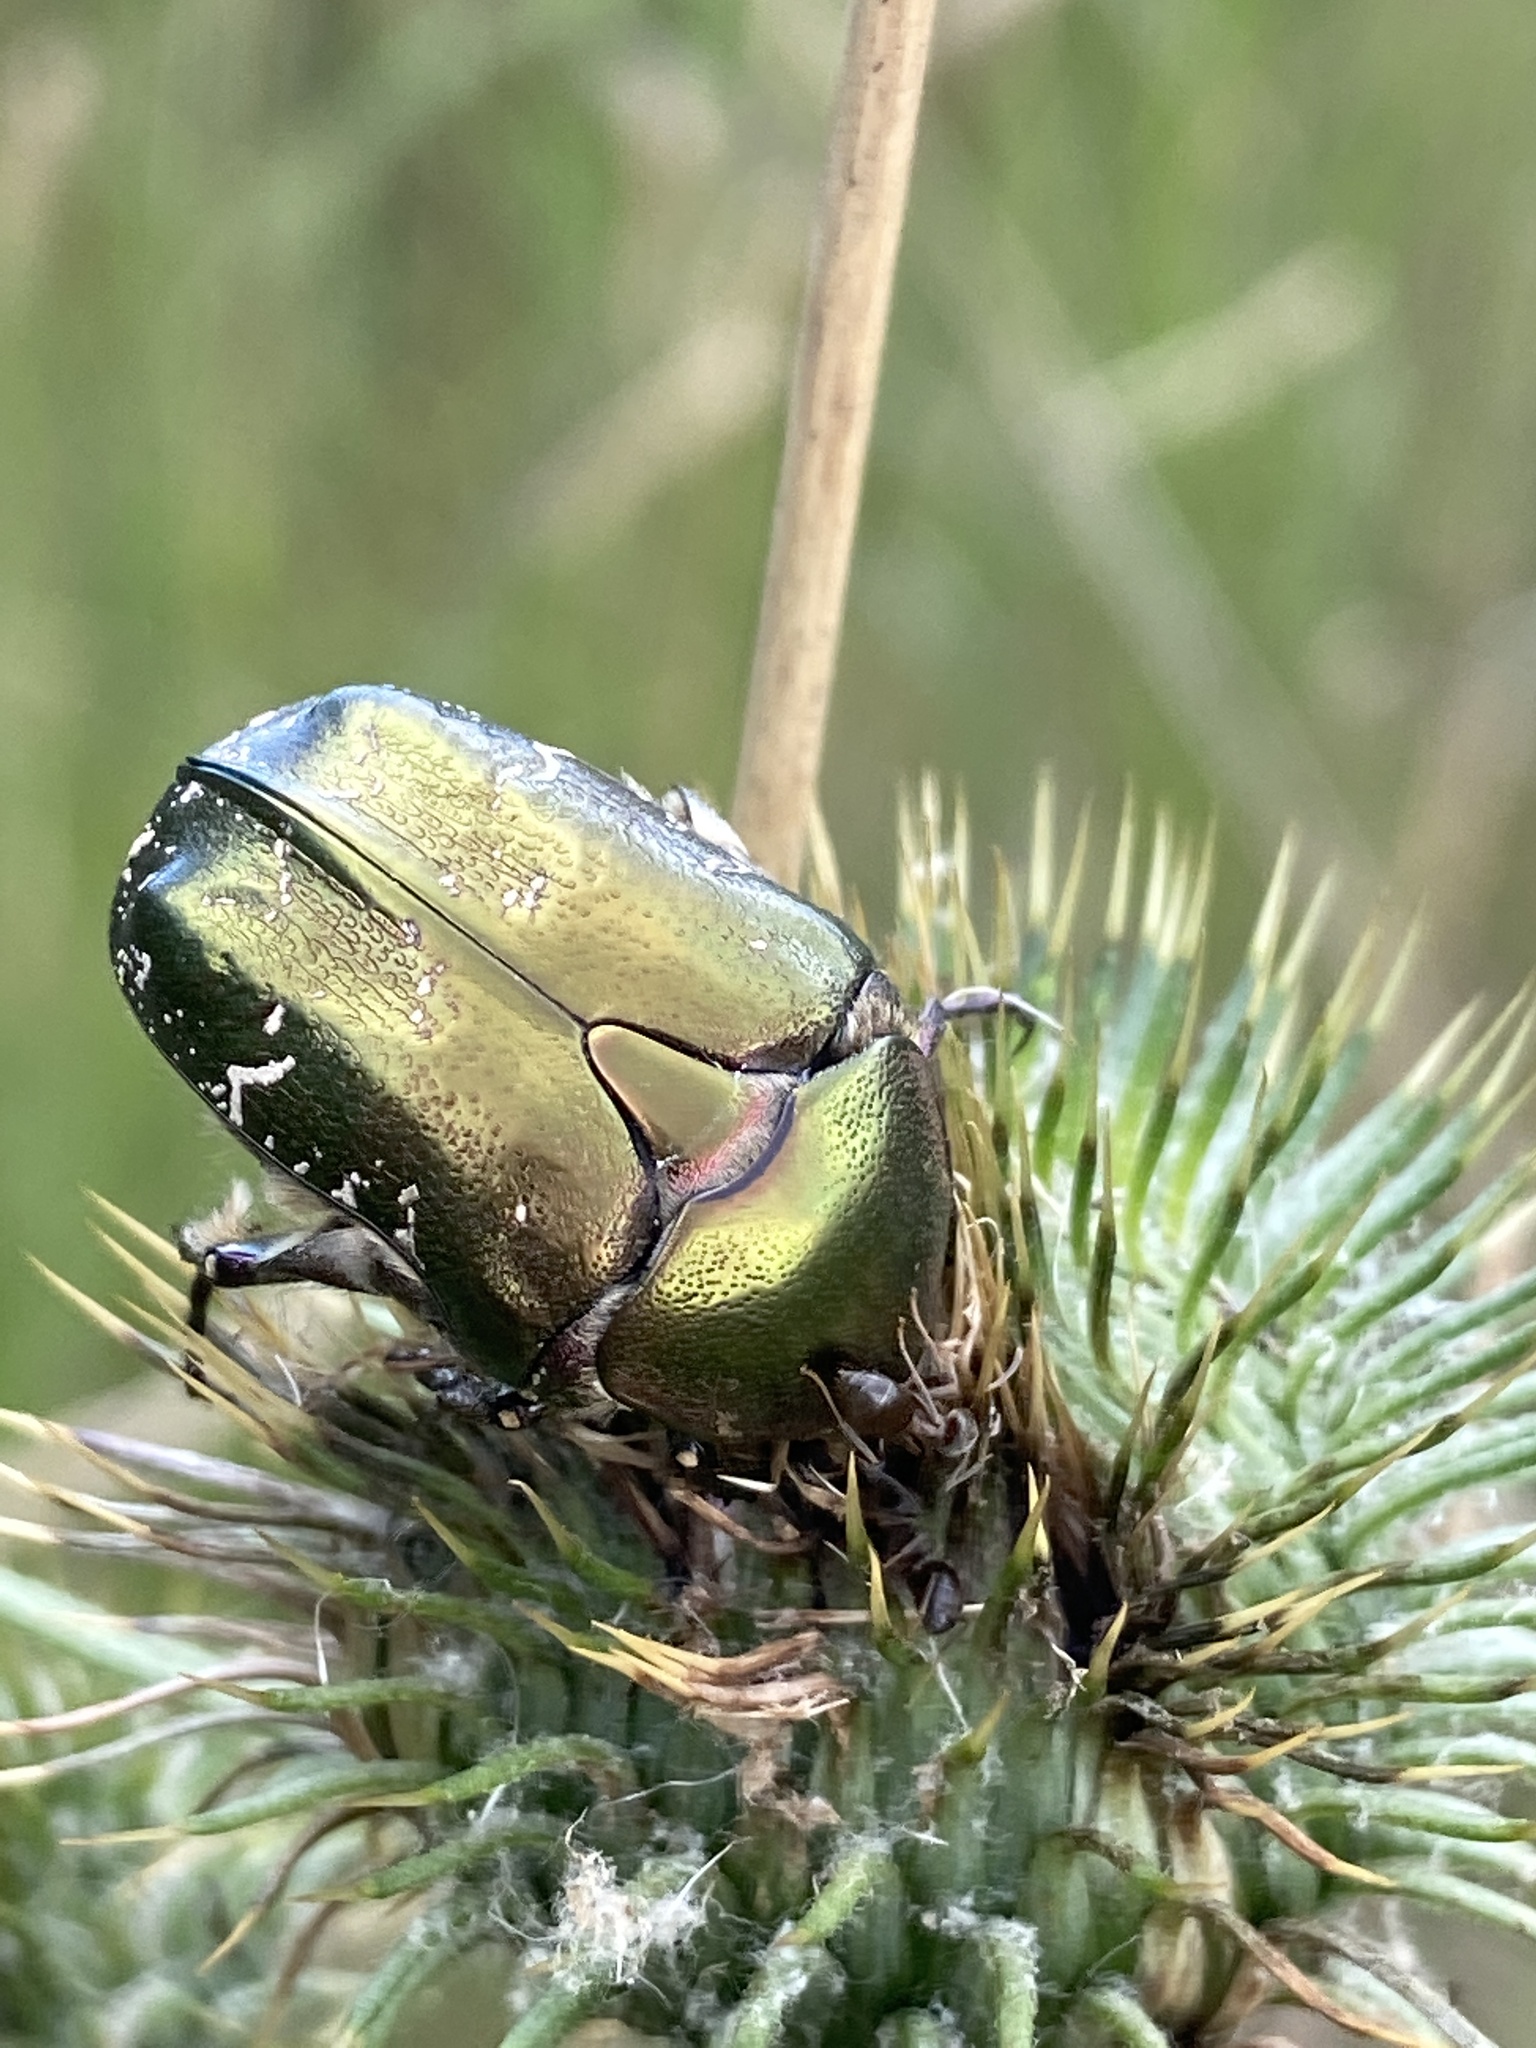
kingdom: Animalia
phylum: Arthropoda
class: Insecta
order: Coleoptera
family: Scarabaeidae
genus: Protaetia
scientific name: Protaetia cuprea
